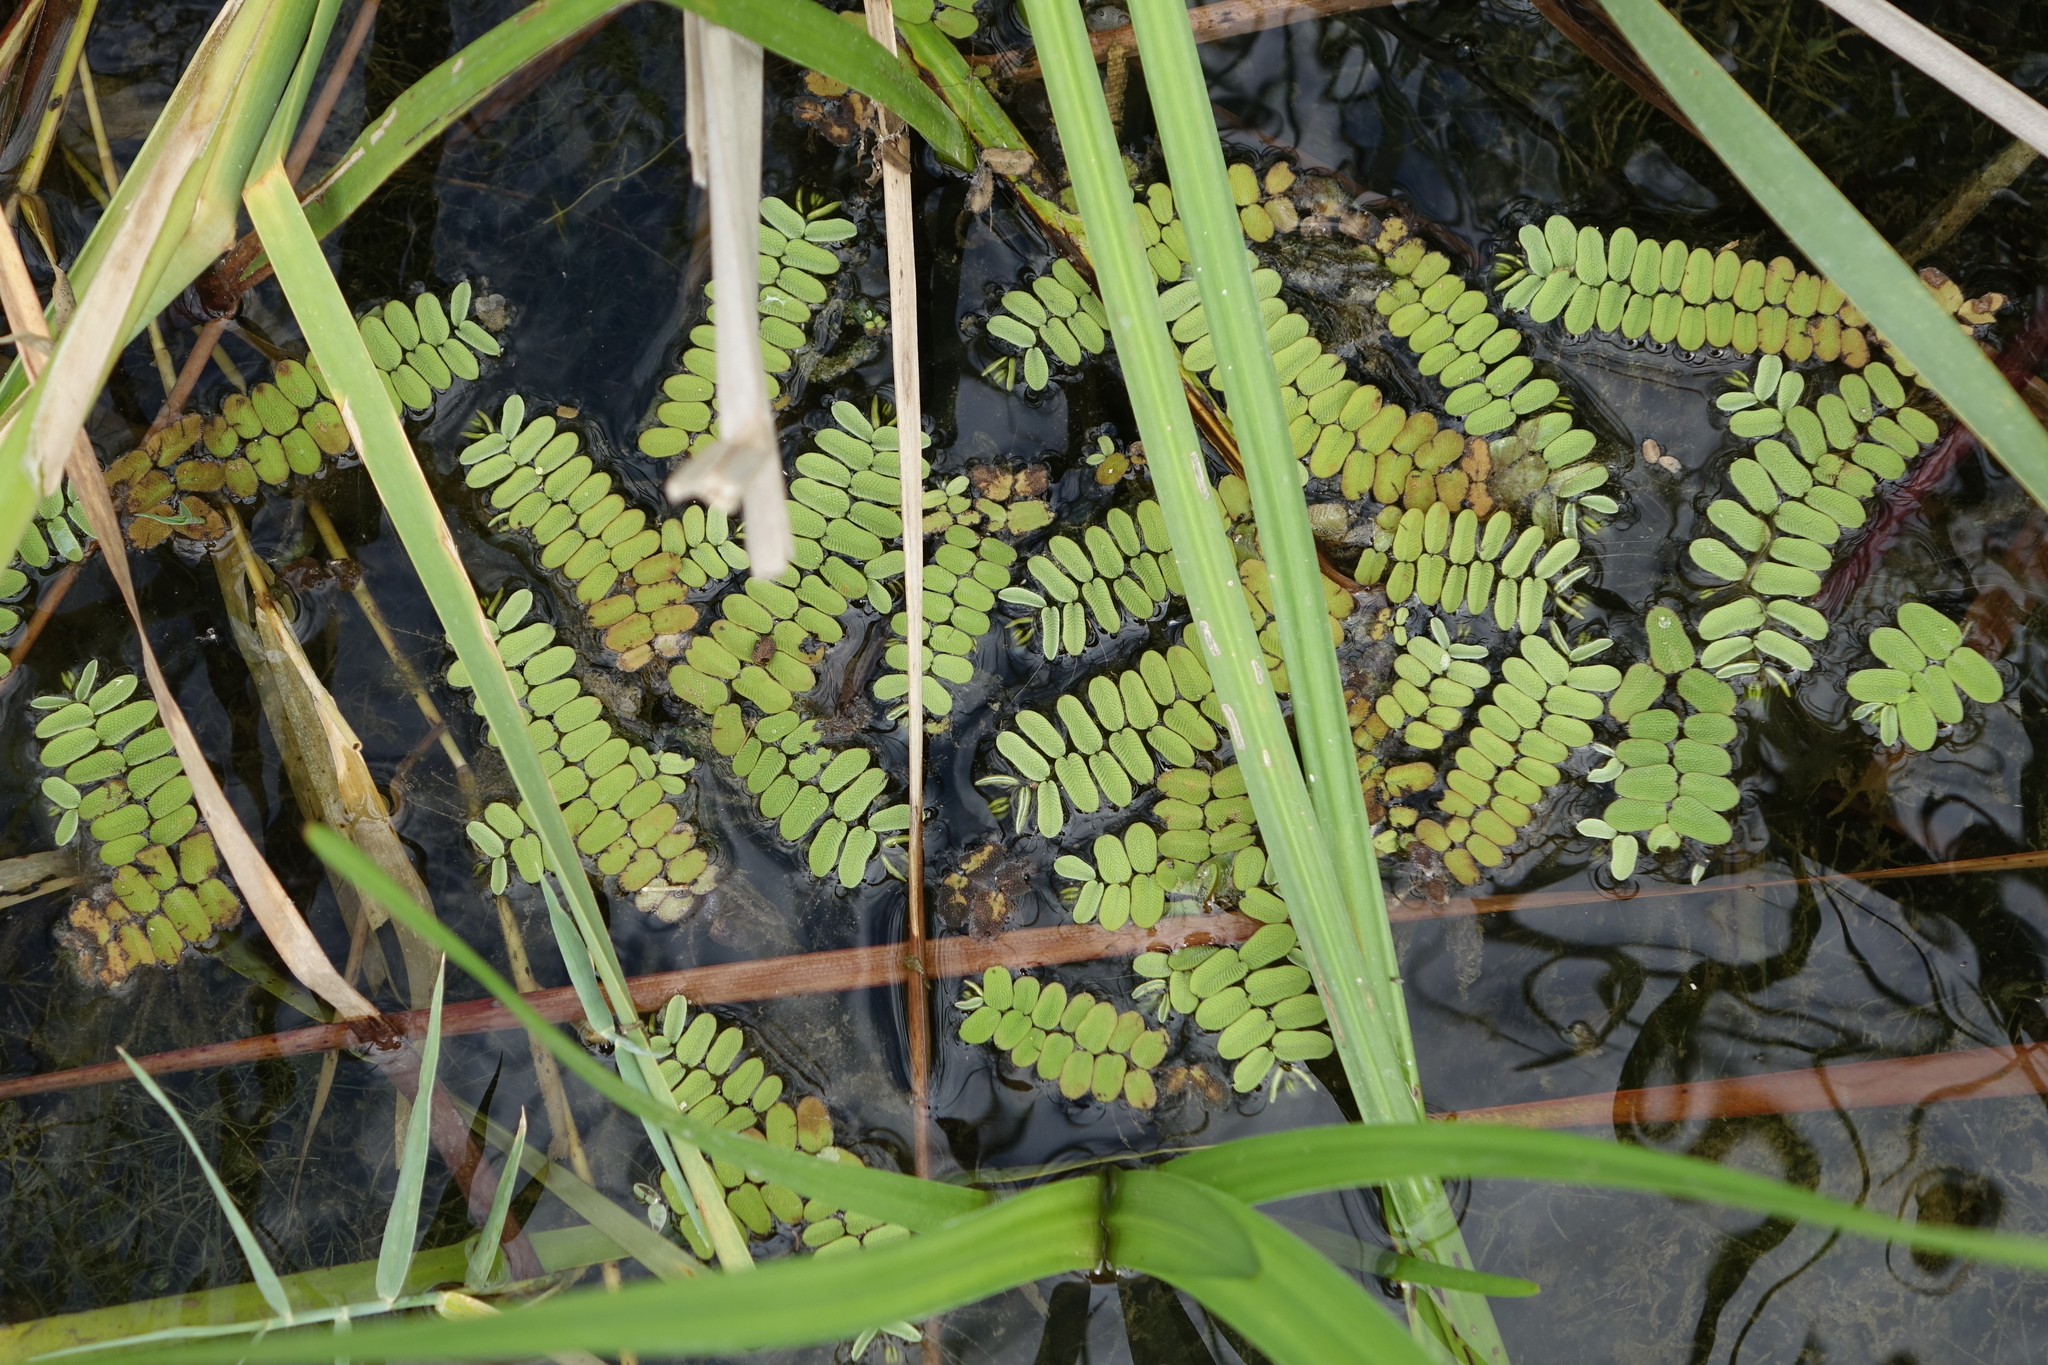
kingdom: Plantae
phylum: Tracheophyta
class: Polypodiopsida
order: Salviniales
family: Salviniaceae
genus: Salvinia
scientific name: Salvinia natans
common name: Floating fern
